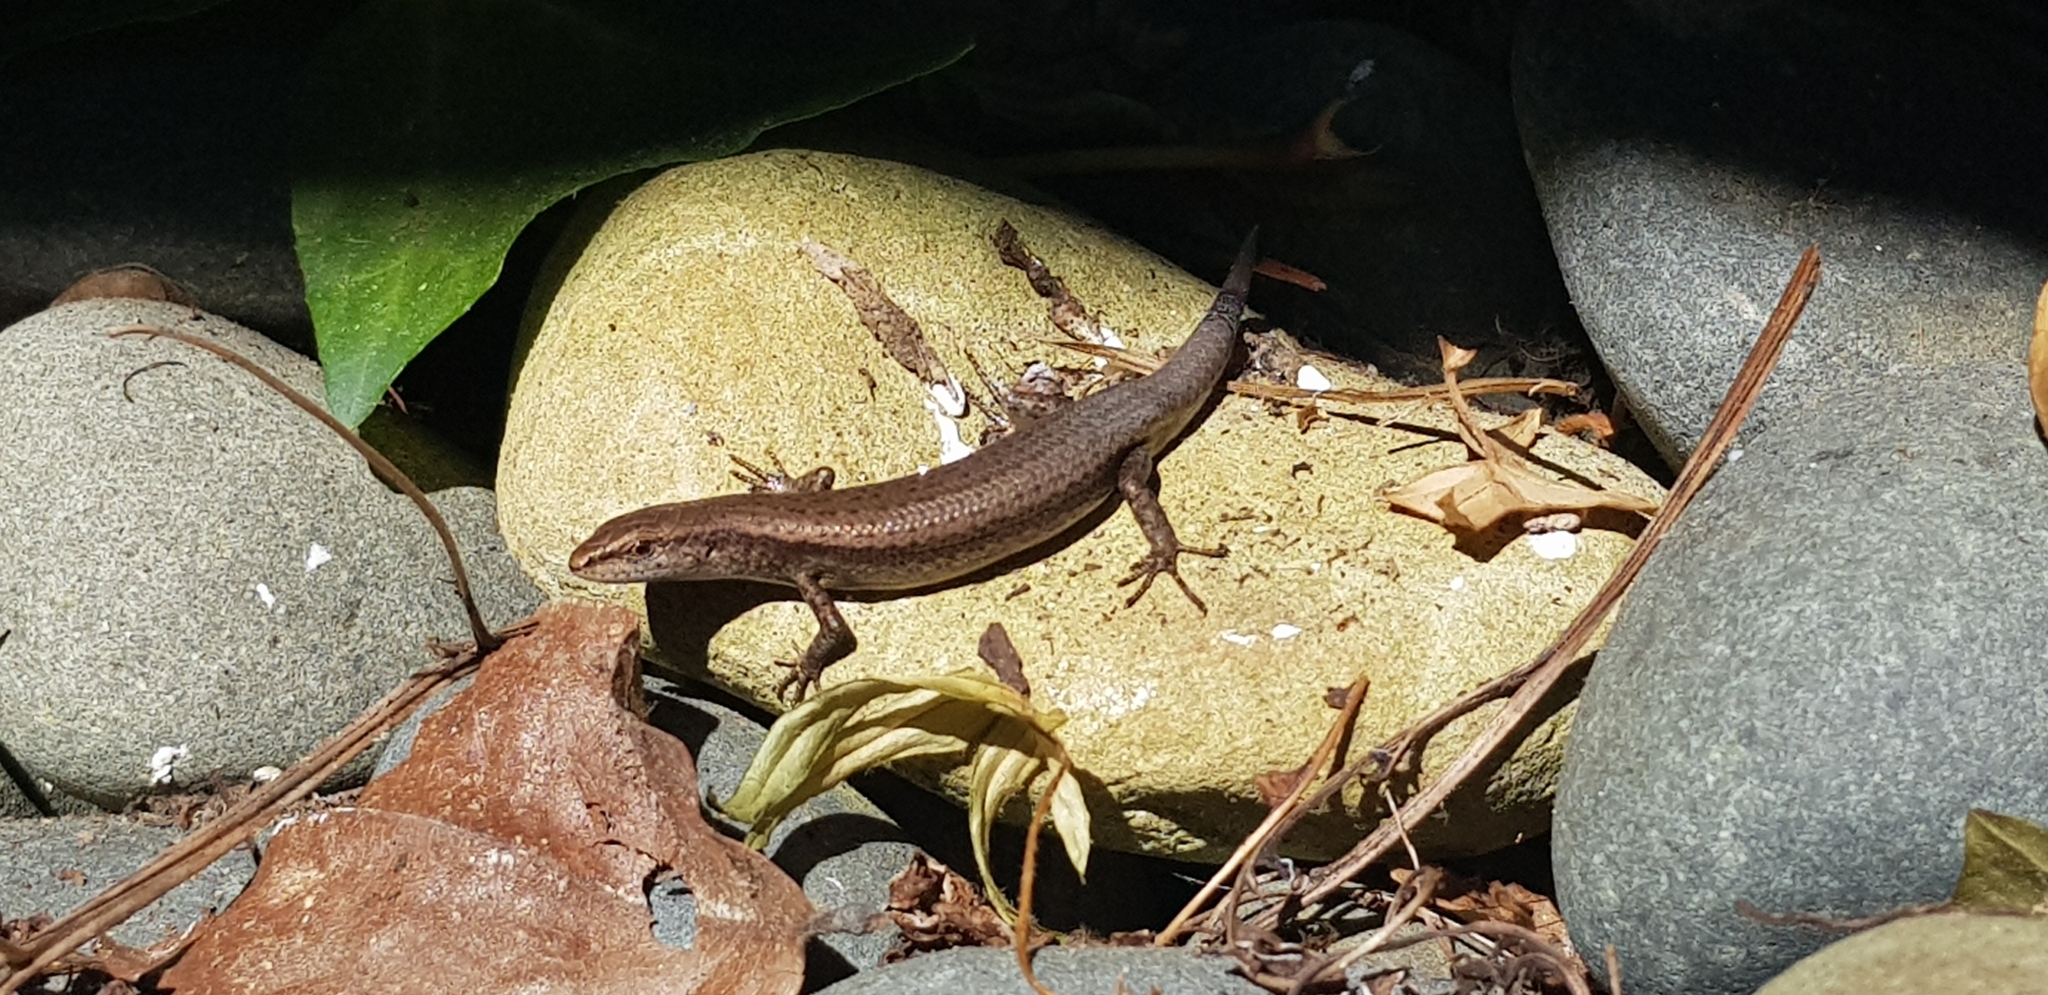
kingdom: Animalia
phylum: Chordata
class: Squamata
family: Scincidae
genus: Lampropholis
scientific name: Lampropholis delicata
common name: Plague skink
